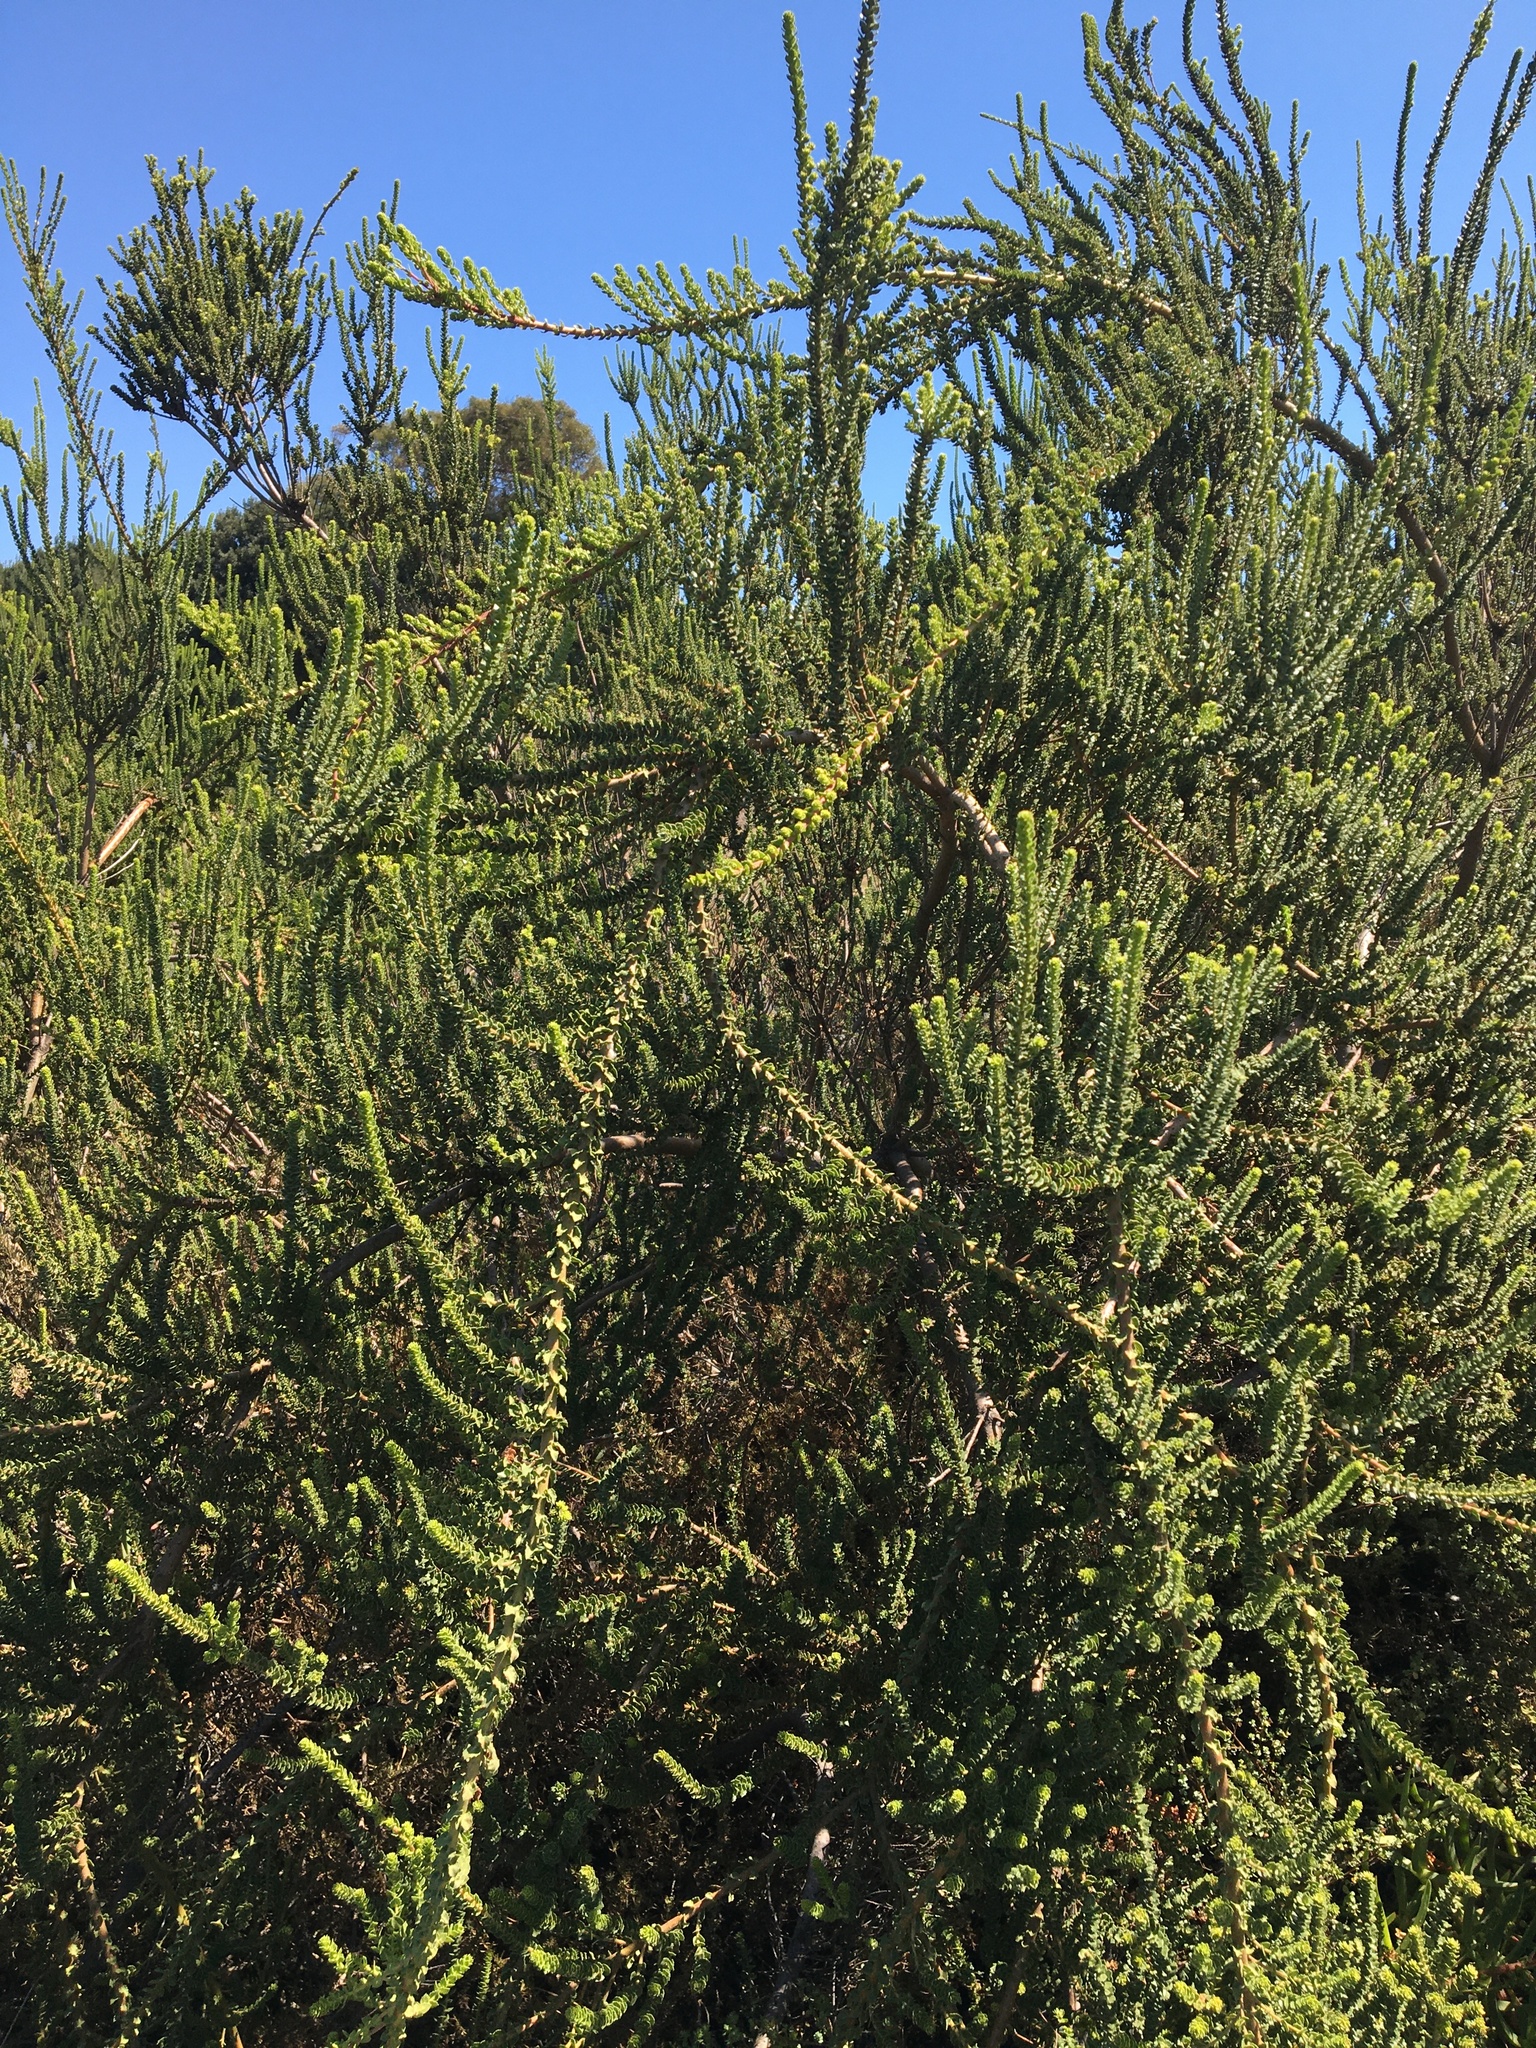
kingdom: Plantae
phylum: Tracheophyta
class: Magnoliopsida
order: Fagales
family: Myricaceae
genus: Morella
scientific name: Morella cordifolia
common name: Waxberry
